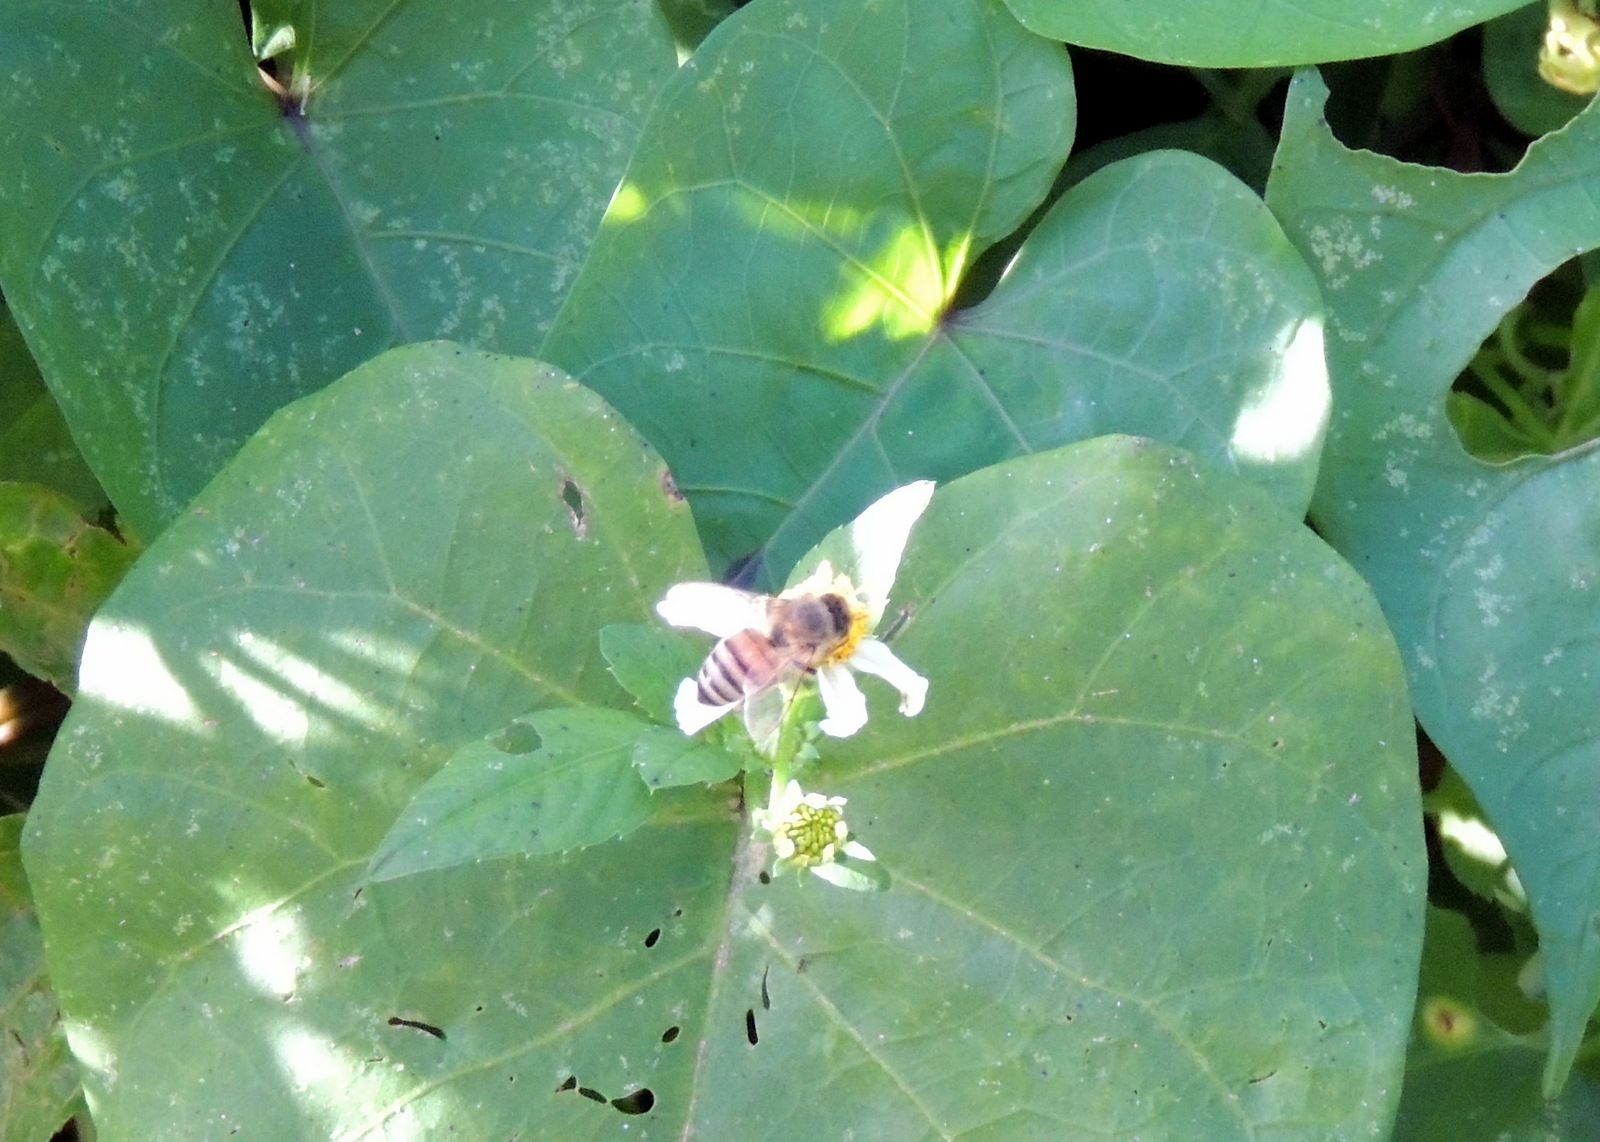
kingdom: Animalia
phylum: Arthropoda
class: Insecta
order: Hymenoptera
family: Apidae
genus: Apis
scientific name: Apis mellifera
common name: Honey bee
